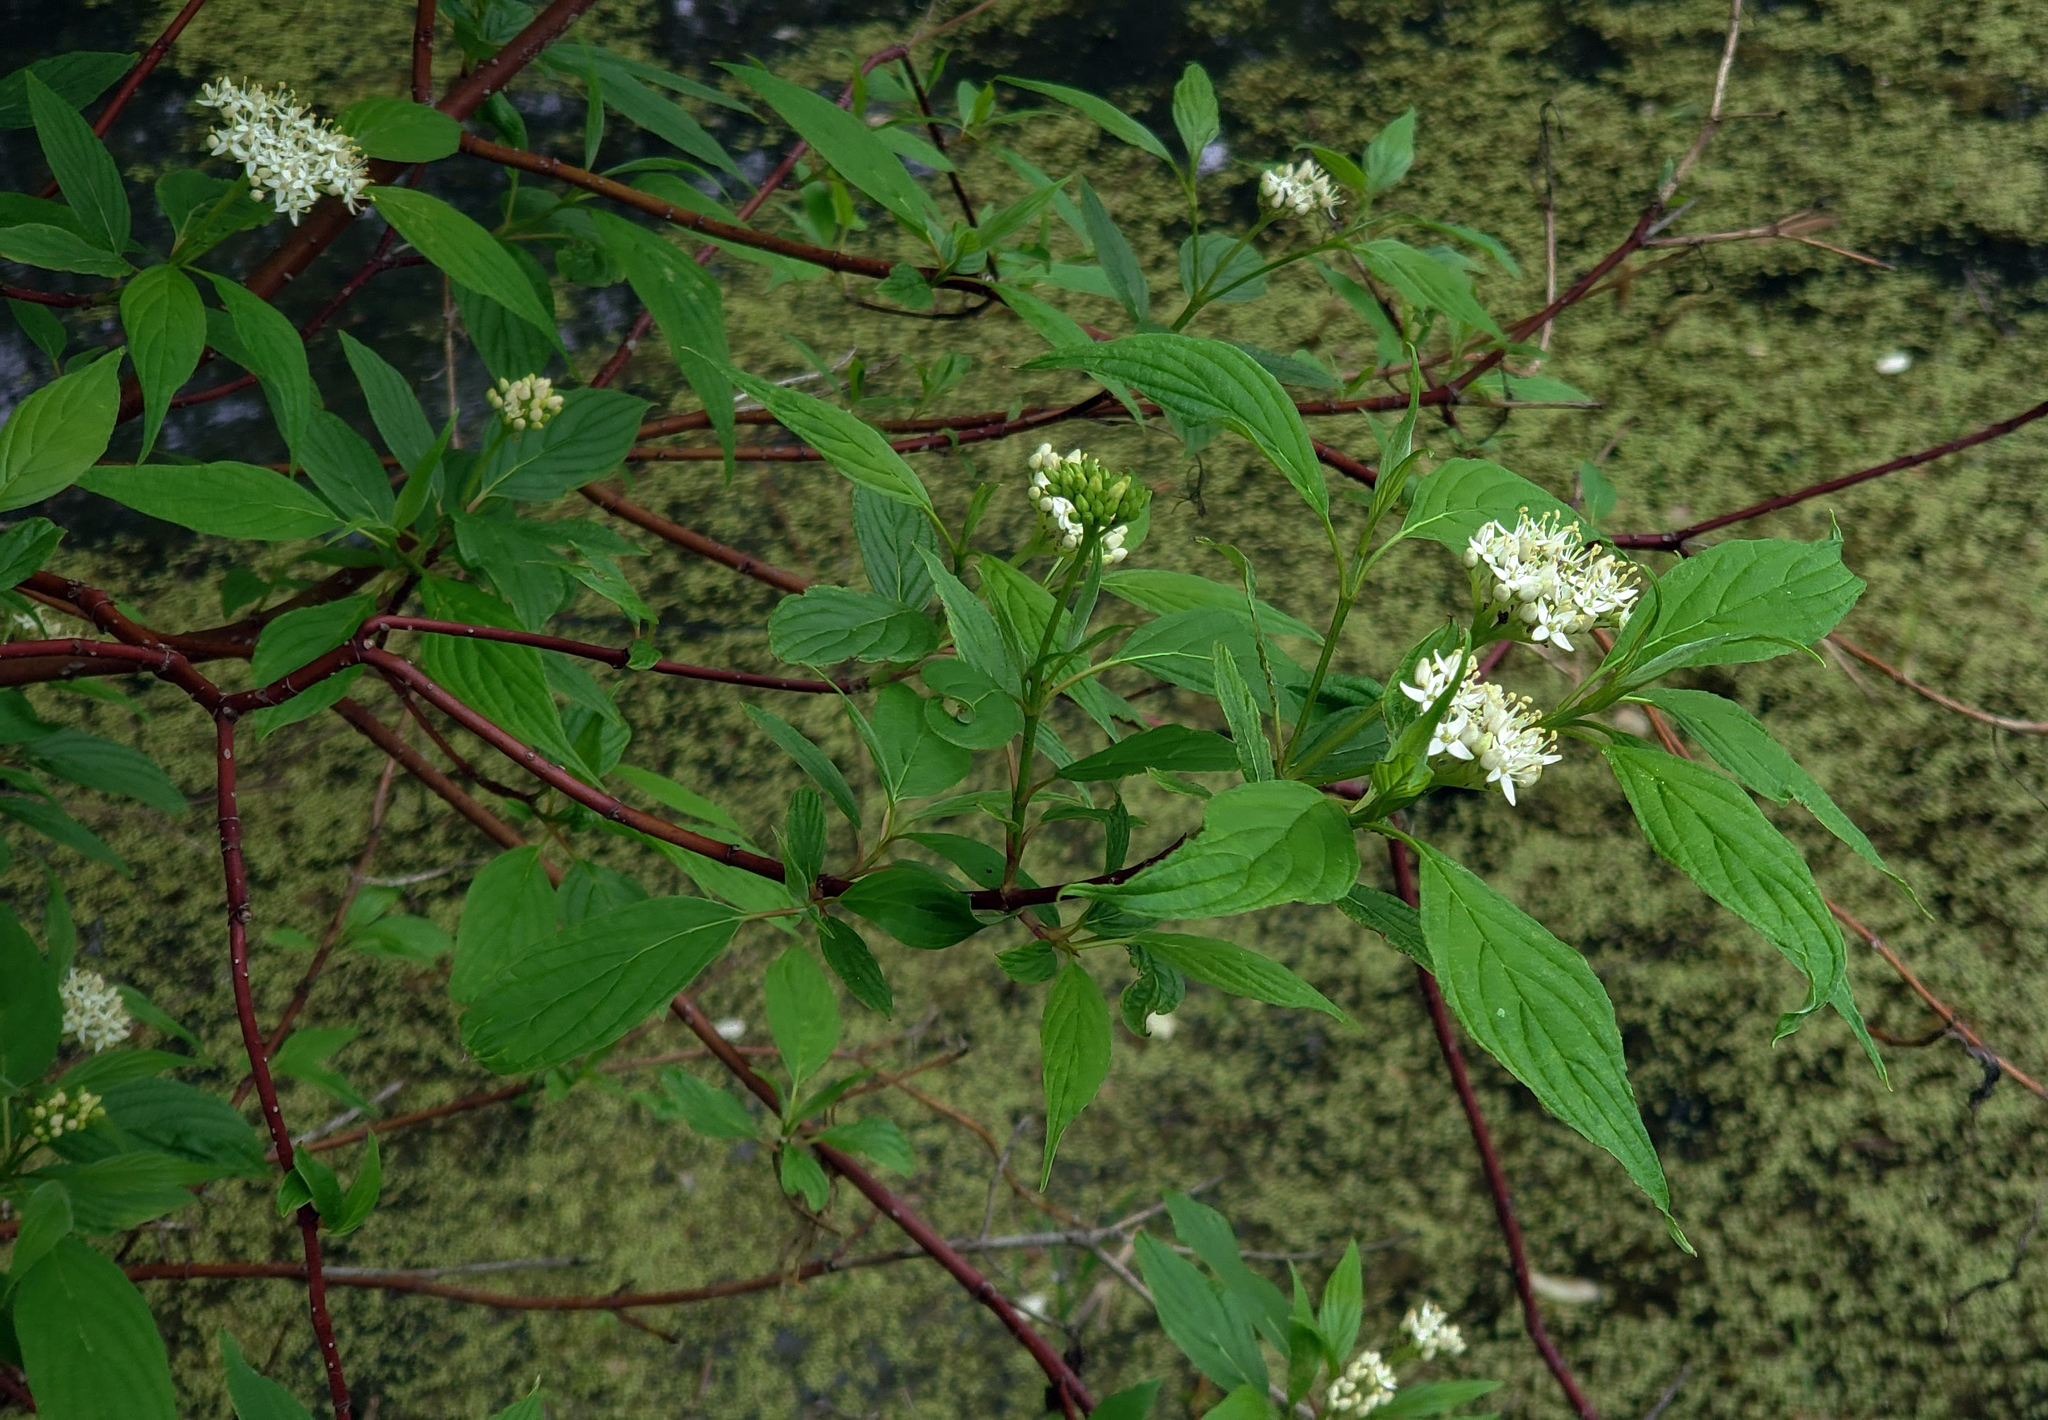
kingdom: Plantae
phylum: Tracheophyta
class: Magnoliopsida
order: Cornales
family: Cornaceae
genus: Cornus
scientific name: Cornus sericea
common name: Red-osier dogwood
